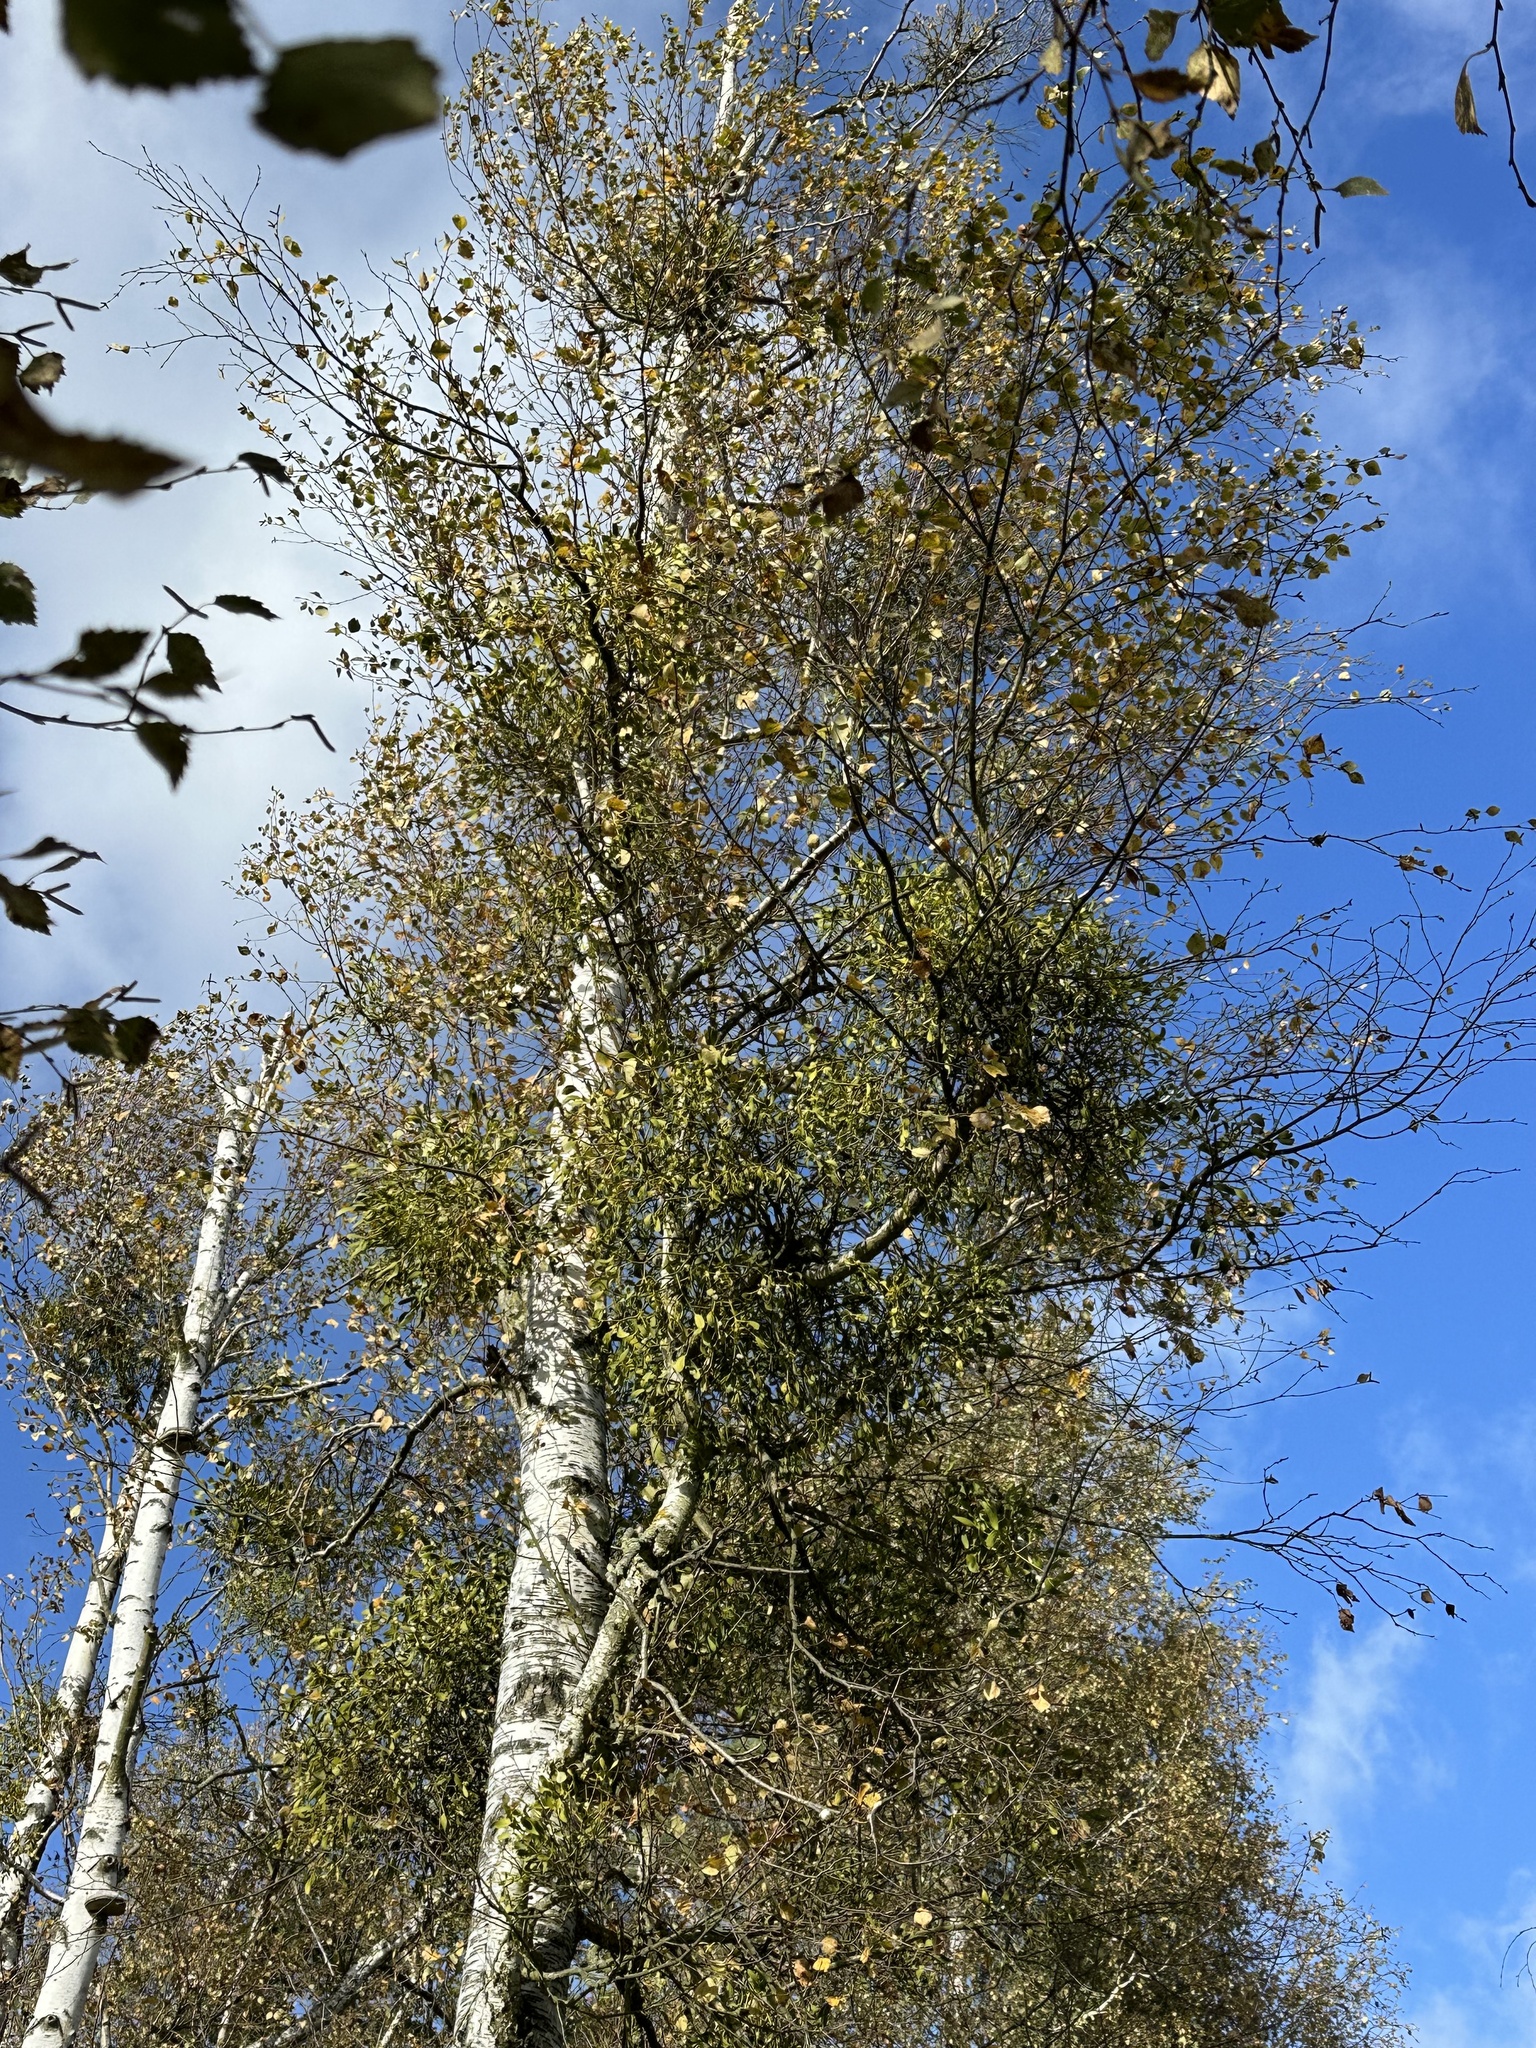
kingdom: Plantae
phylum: Tracheophyta
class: Magnoliopsida
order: Santalales
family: Viscaceae
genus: Viscum
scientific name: Viscum album
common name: Mistletoe
